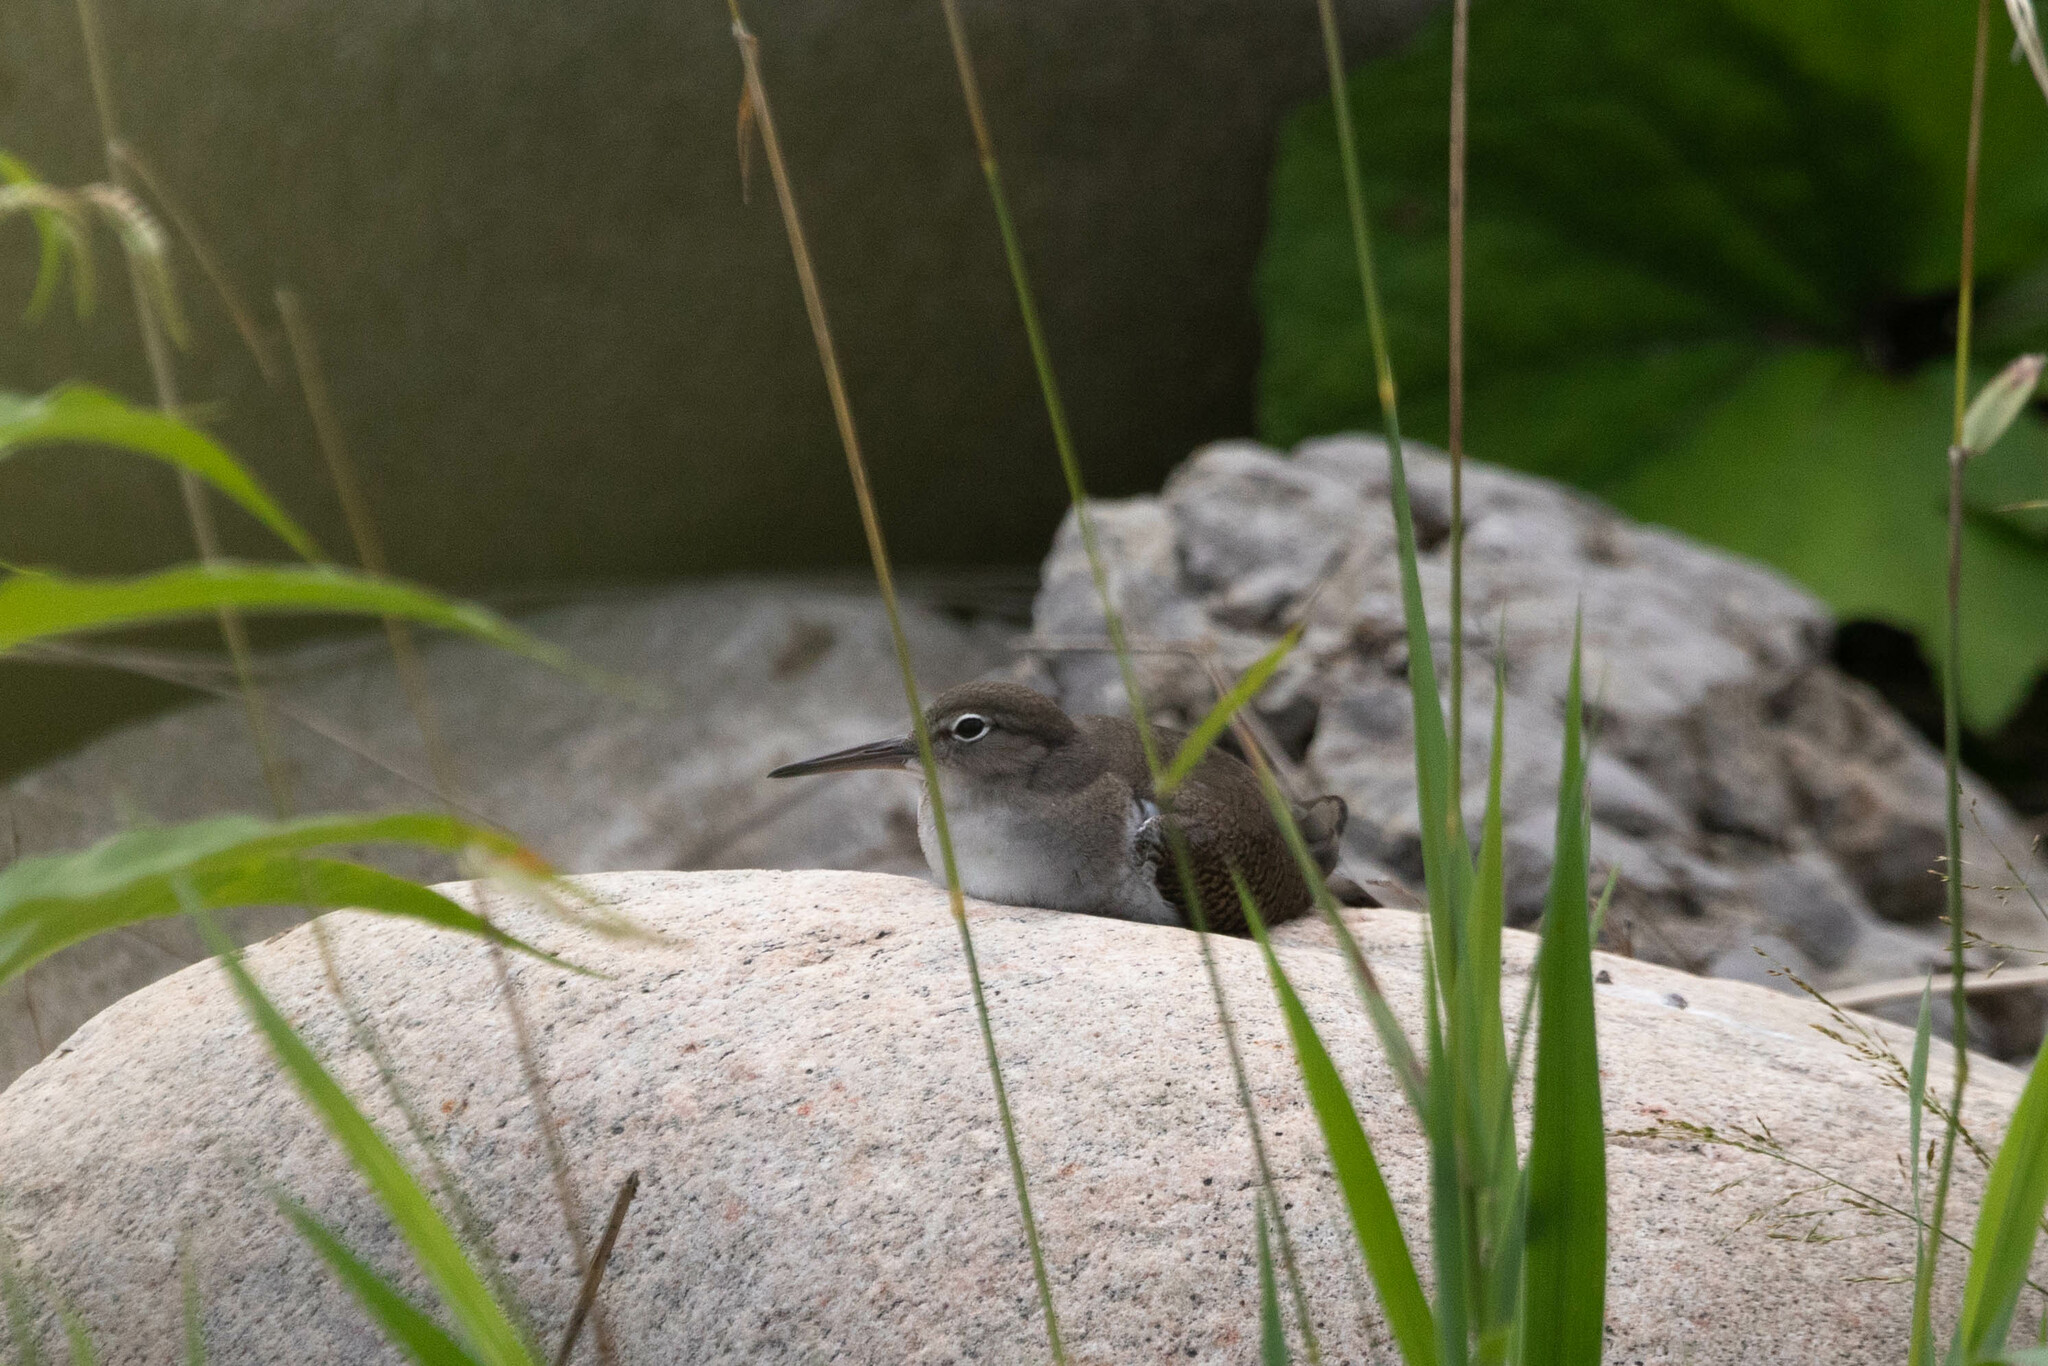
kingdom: Animalia
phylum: Chordata
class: Aves
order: Charadriiformes
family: Scolopacidae
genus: Actitis
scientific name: Actitis macularius
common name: Spotted sandpiper
